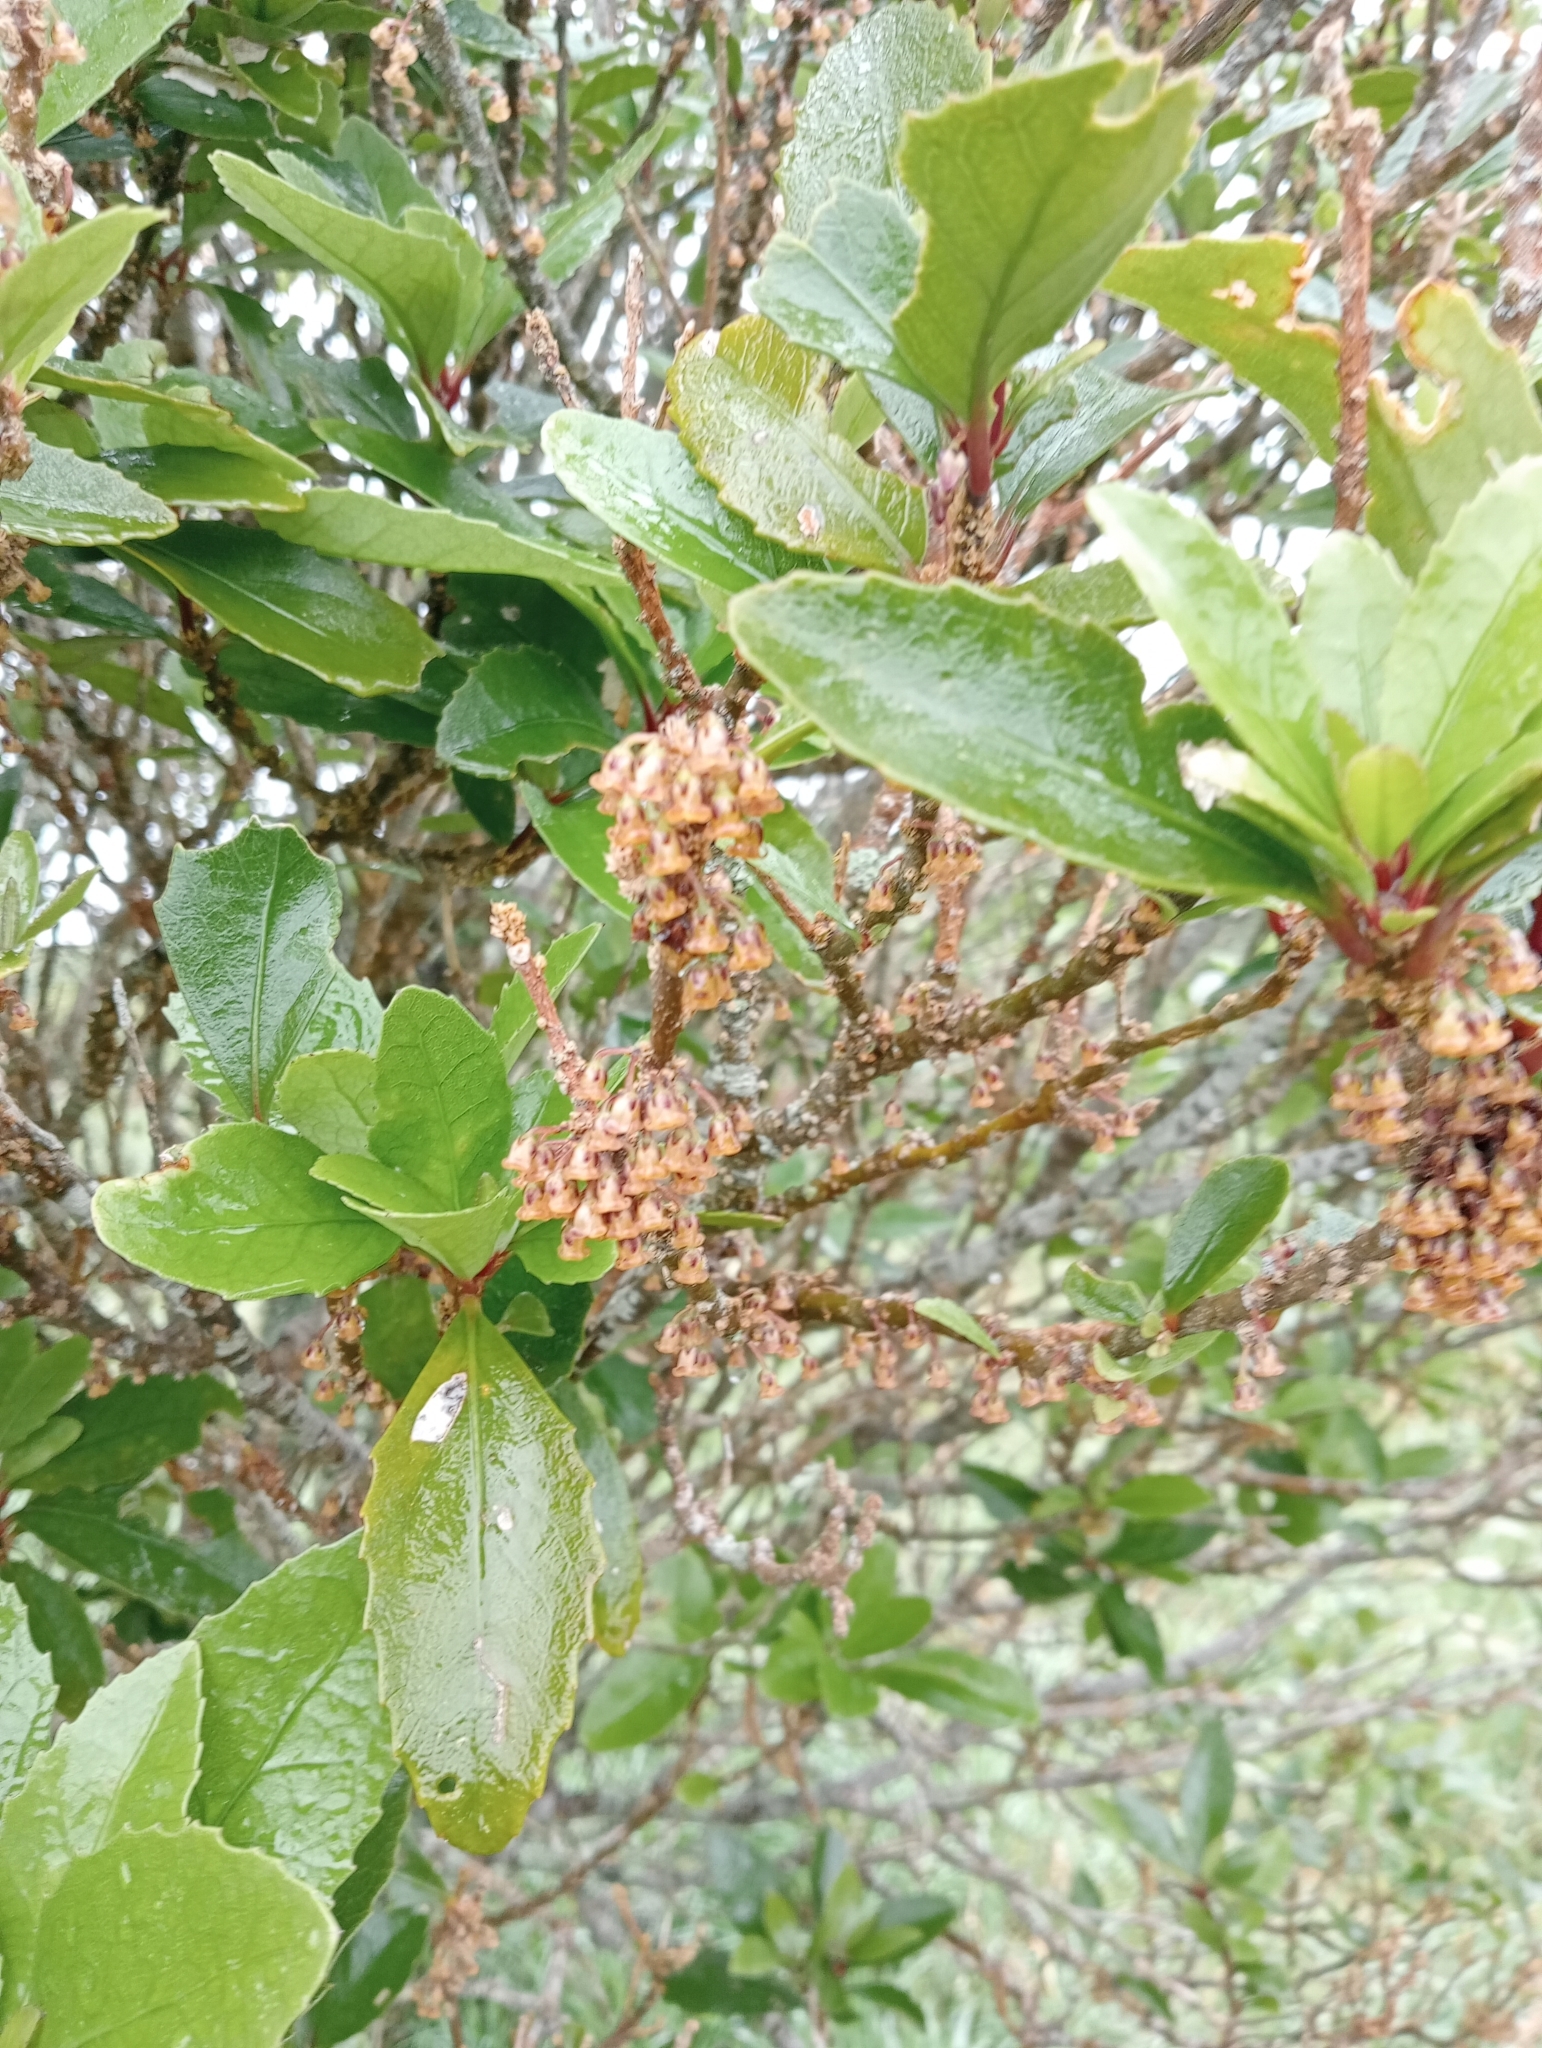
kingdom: Plantae
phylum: Tracheophyta
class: Magnoliopsida
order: Malpighiales
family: Violaceae
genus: Melicytus
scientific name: Melicytus chathamicus
